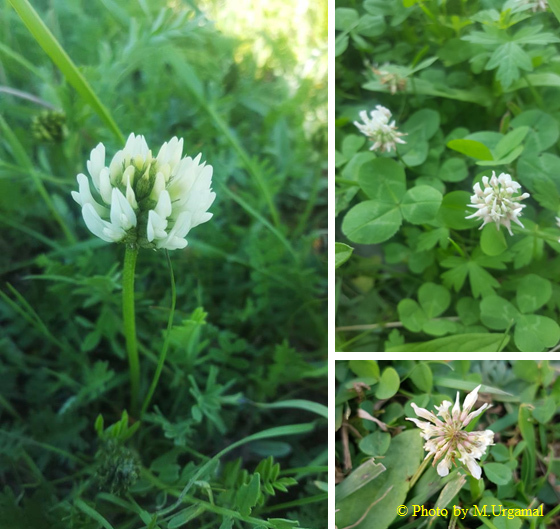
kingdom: Plantae
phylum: Tracheophyta
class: Magnoliopsida
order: Fabales
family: Fabaceae
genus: Trifolium
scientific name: Trifolium repens
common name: White clover
